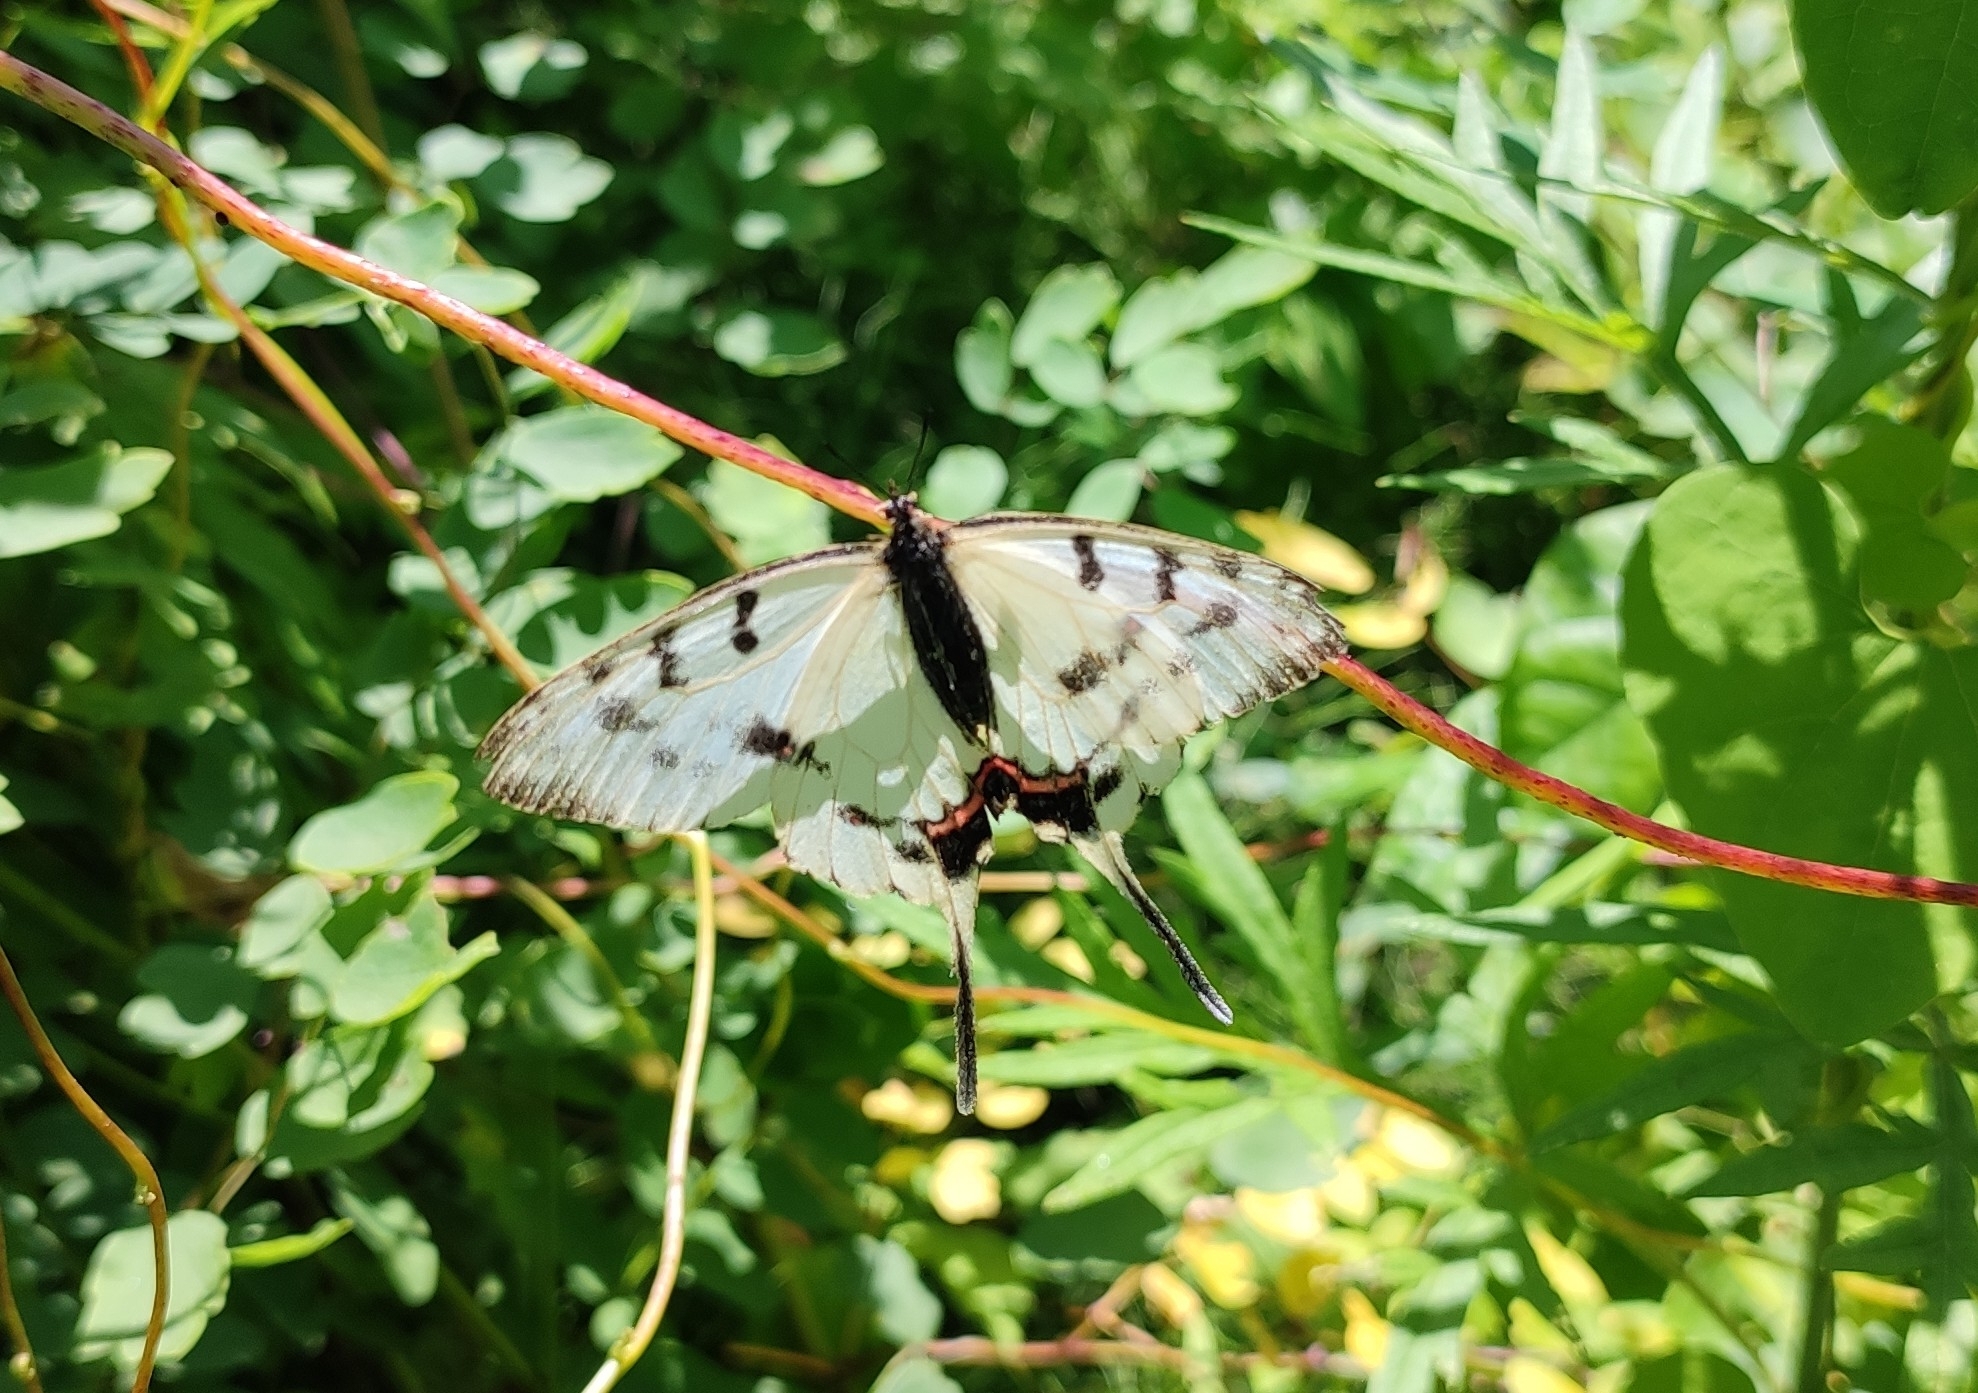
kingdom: Animalia
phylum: Arthropoda
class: Insecta
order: Lepidoptera
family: Papilionidae
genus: Sericinus
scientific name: Sericinus montela
